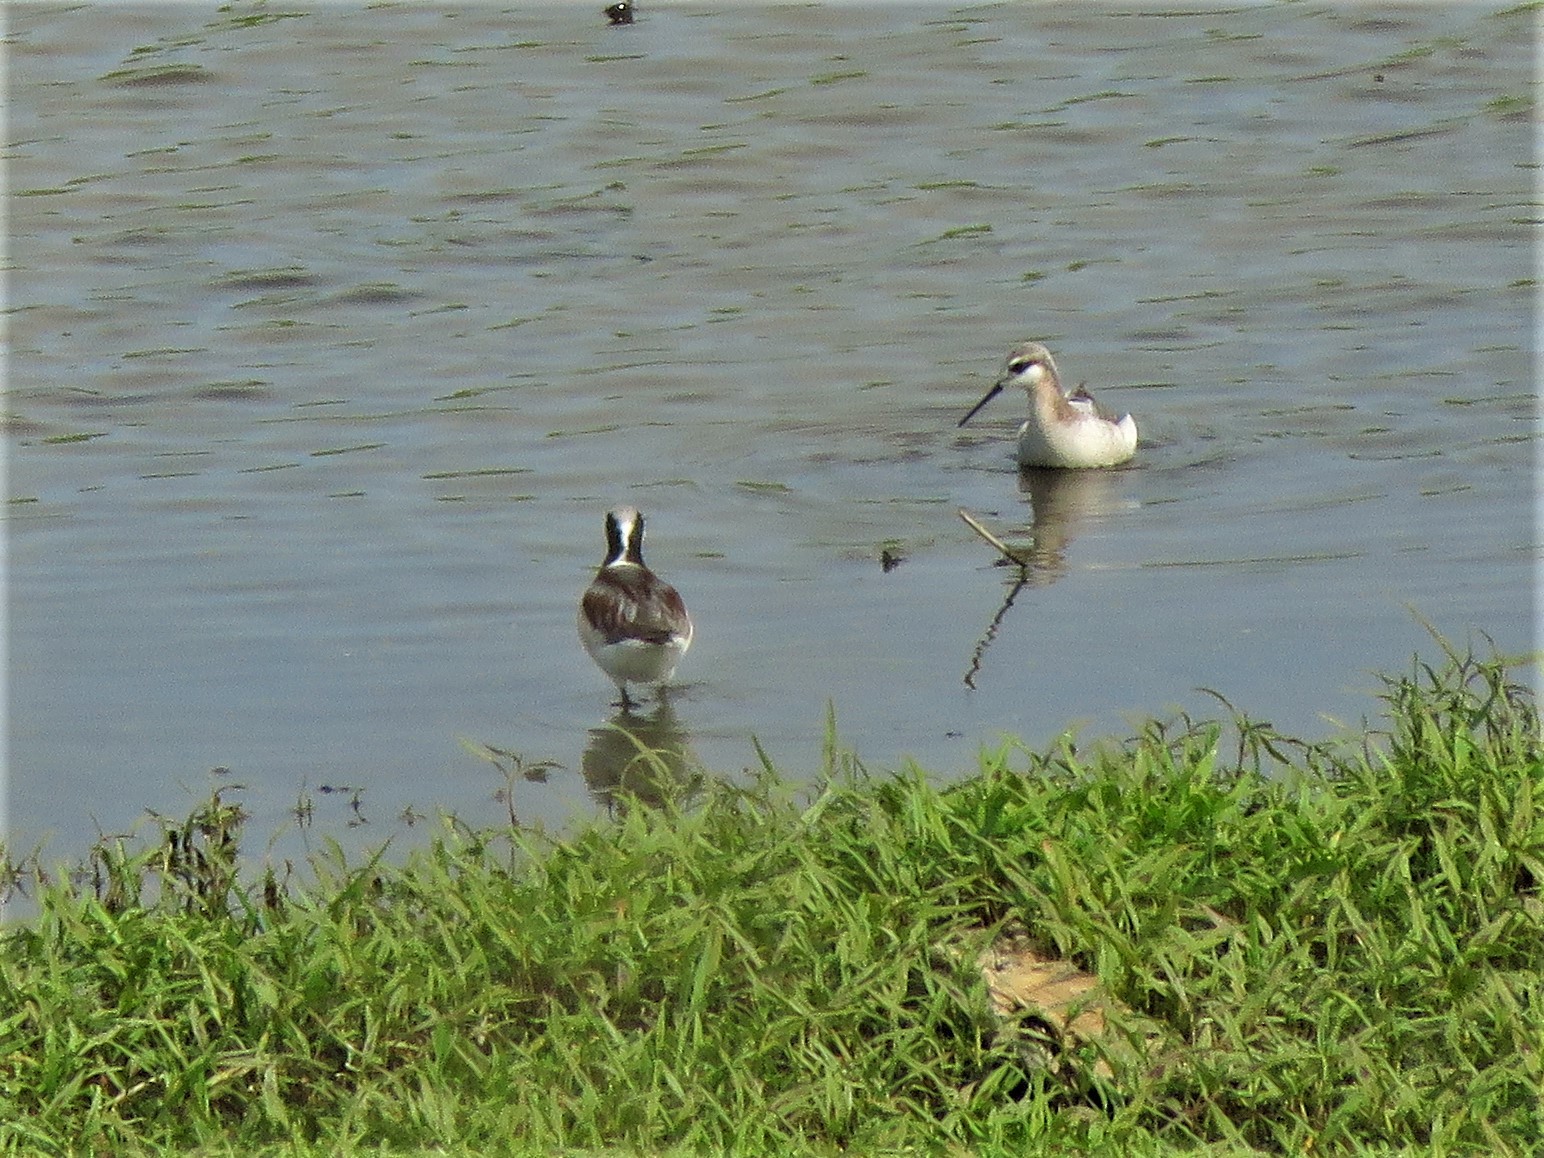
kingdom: Animalia
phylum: Chordata
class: Aves
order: Charadriiformes
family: Scolopacidae
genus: Phalaropus
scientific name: Phalaropus tricolor
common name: Wilson's phalarope
